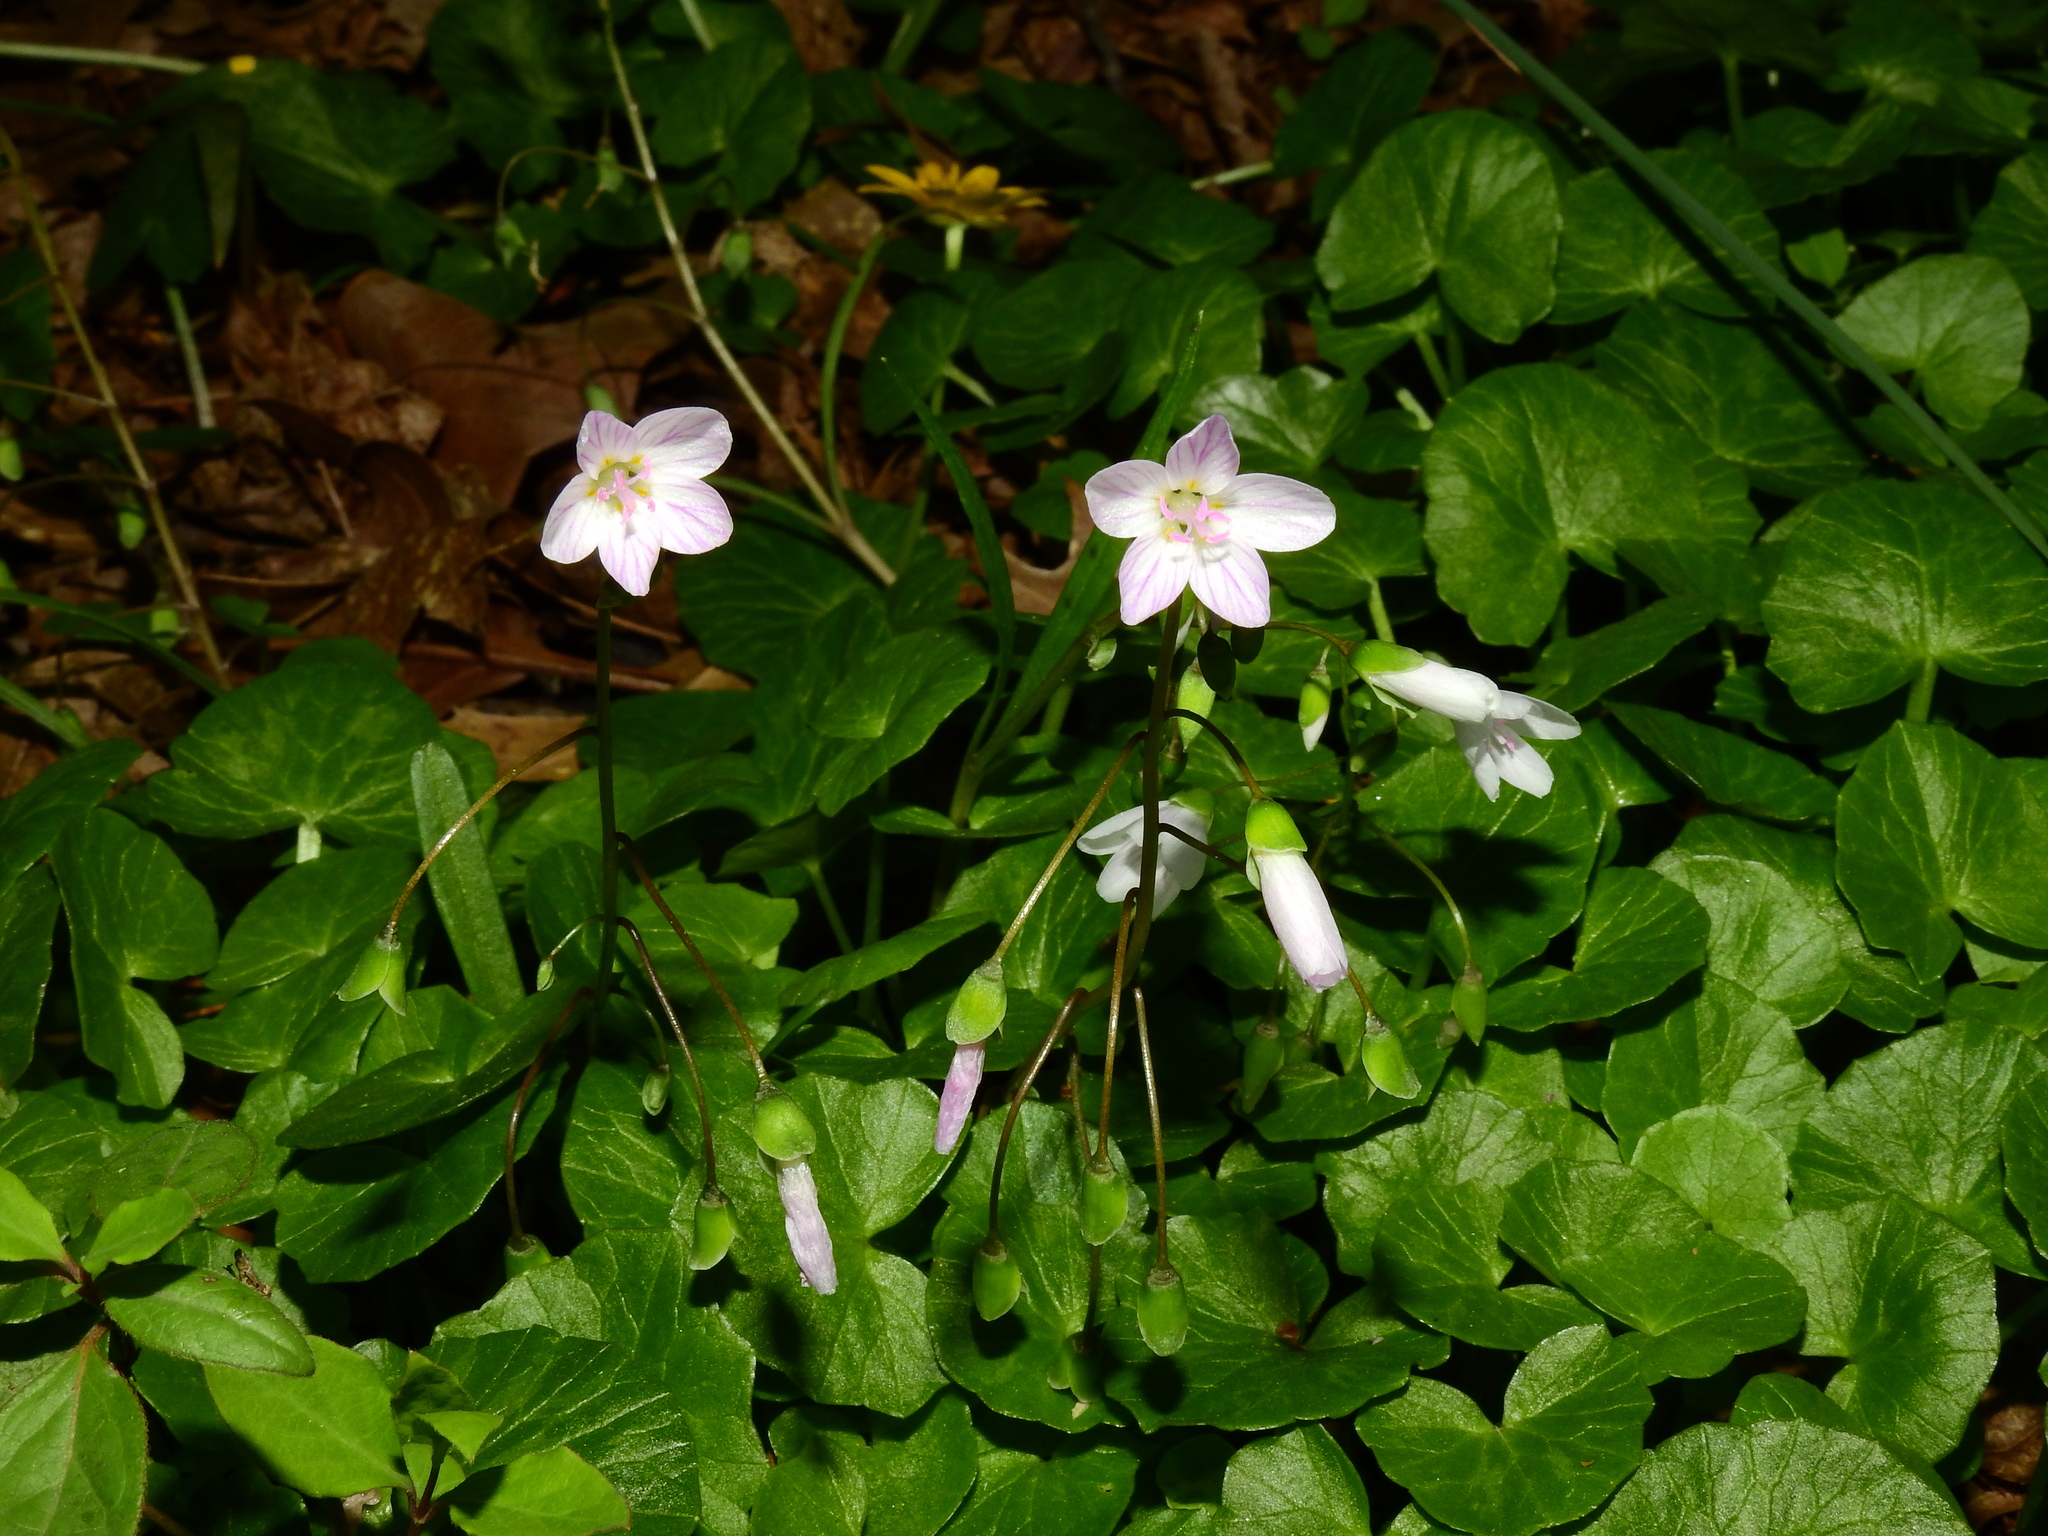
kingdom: Plantae
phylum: Tracheophyta
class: Magnoliopsida
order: Caryophyllales
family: Montiaceae
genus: Claytonia
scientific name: Claytonia virginica
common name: Virginia springbeauty
